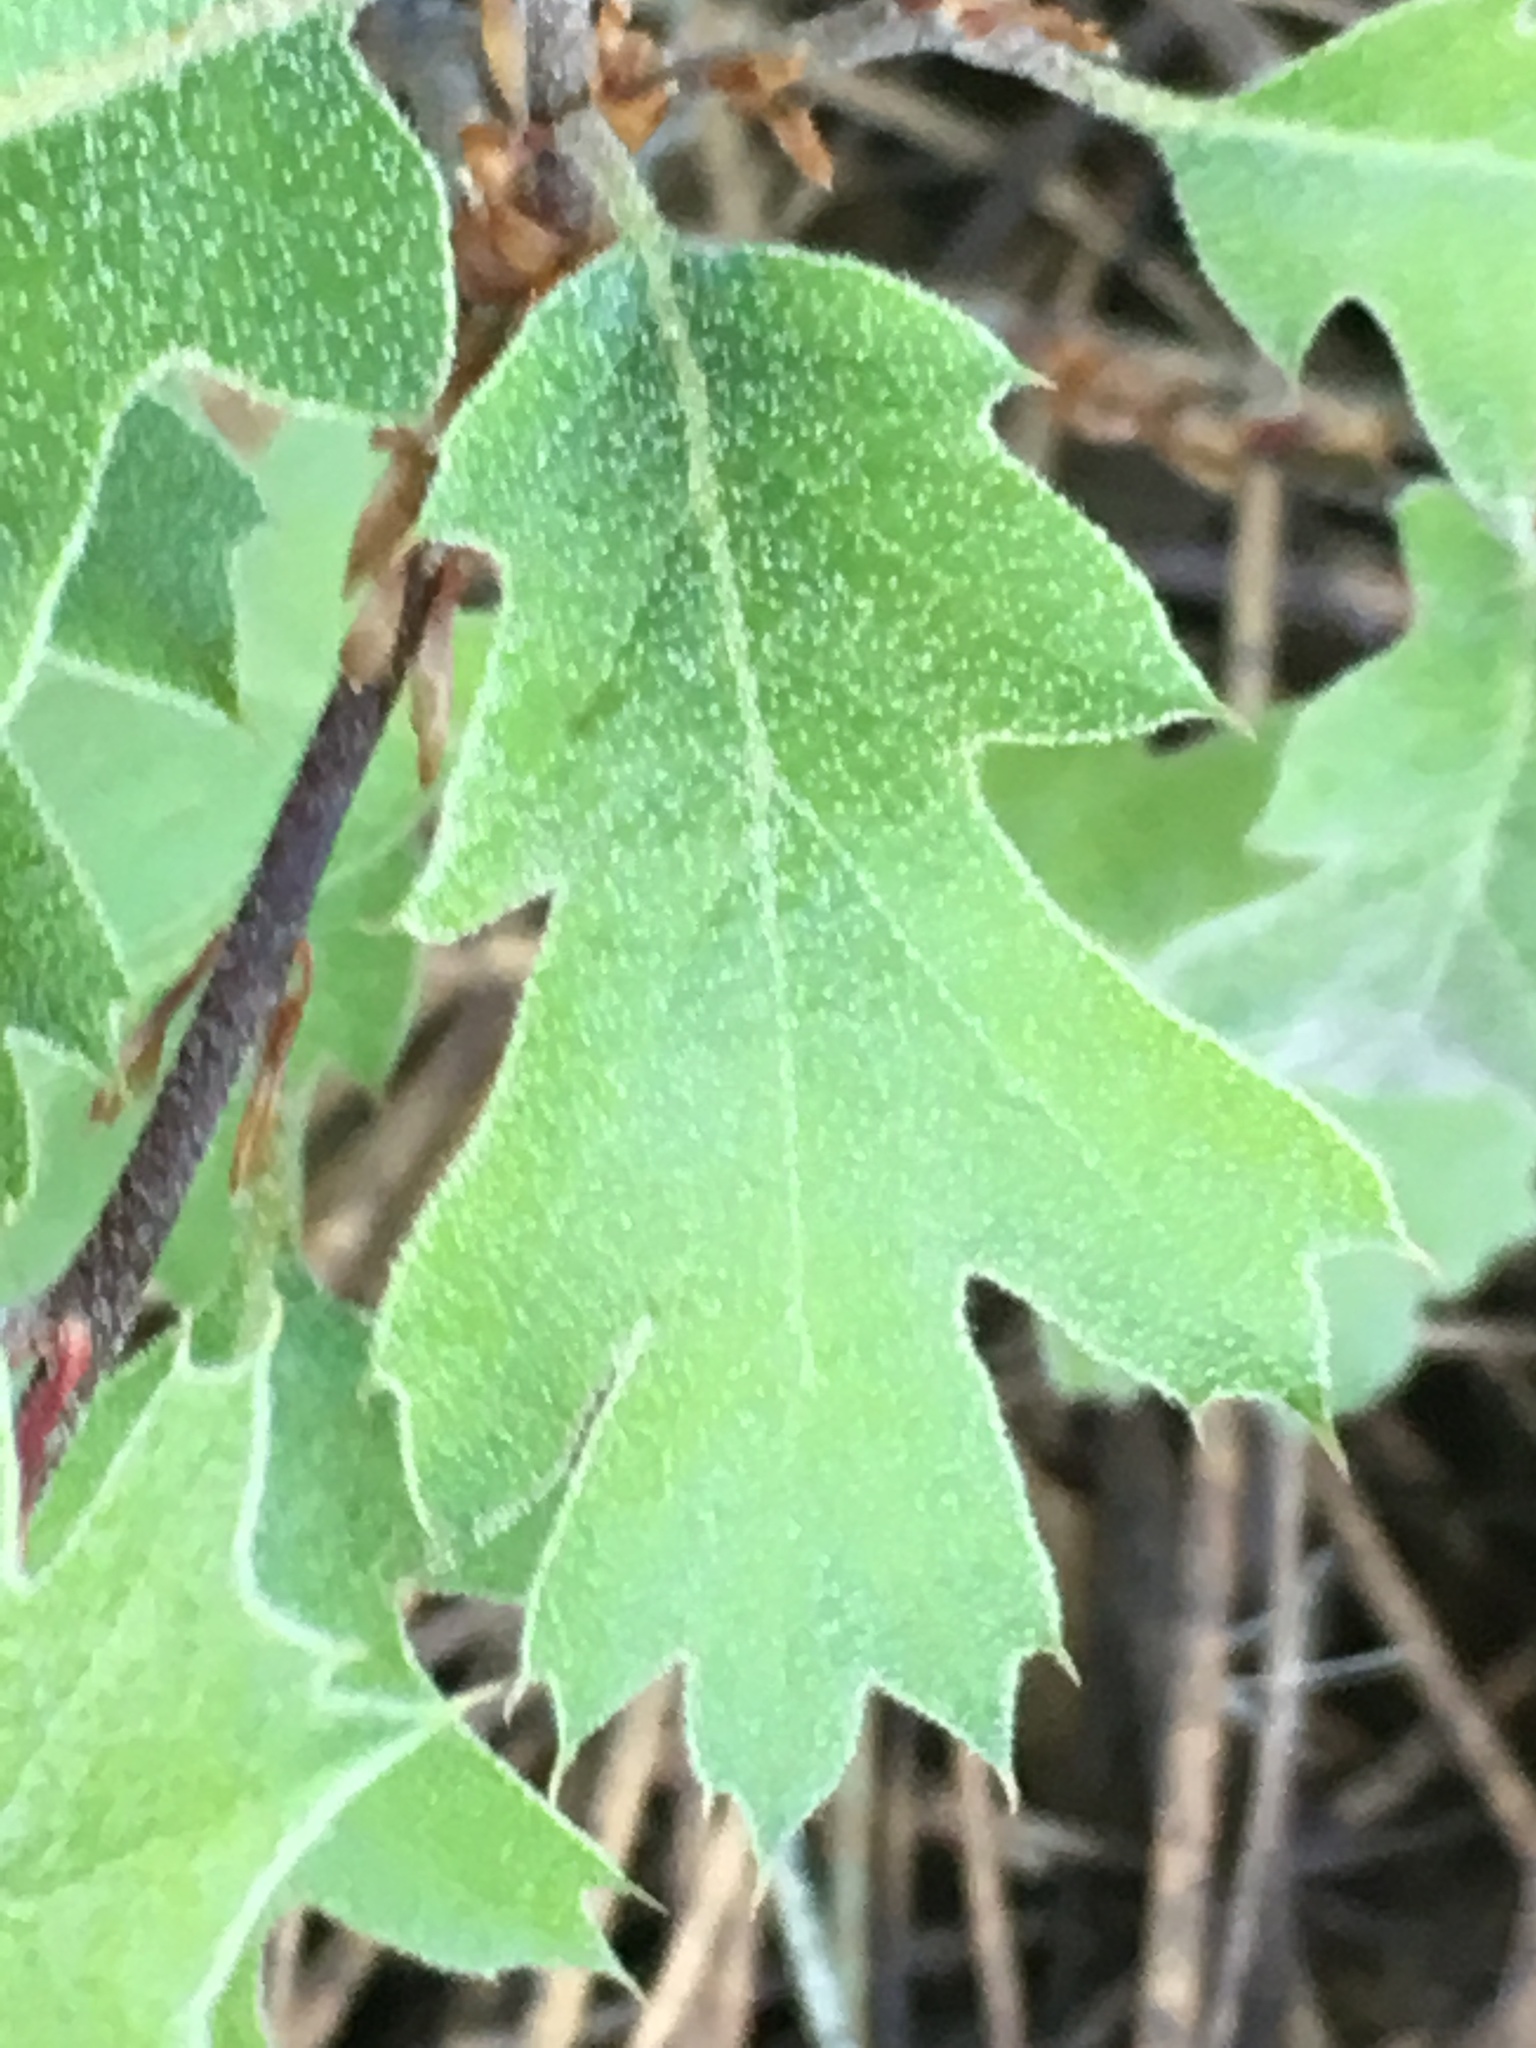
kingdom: Plantae
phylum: Tracheophyta
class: Magnoliopsida
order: Fagales
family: Fagaceae
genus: Quercus
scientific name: Quercus kelloggii
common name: California black oak
